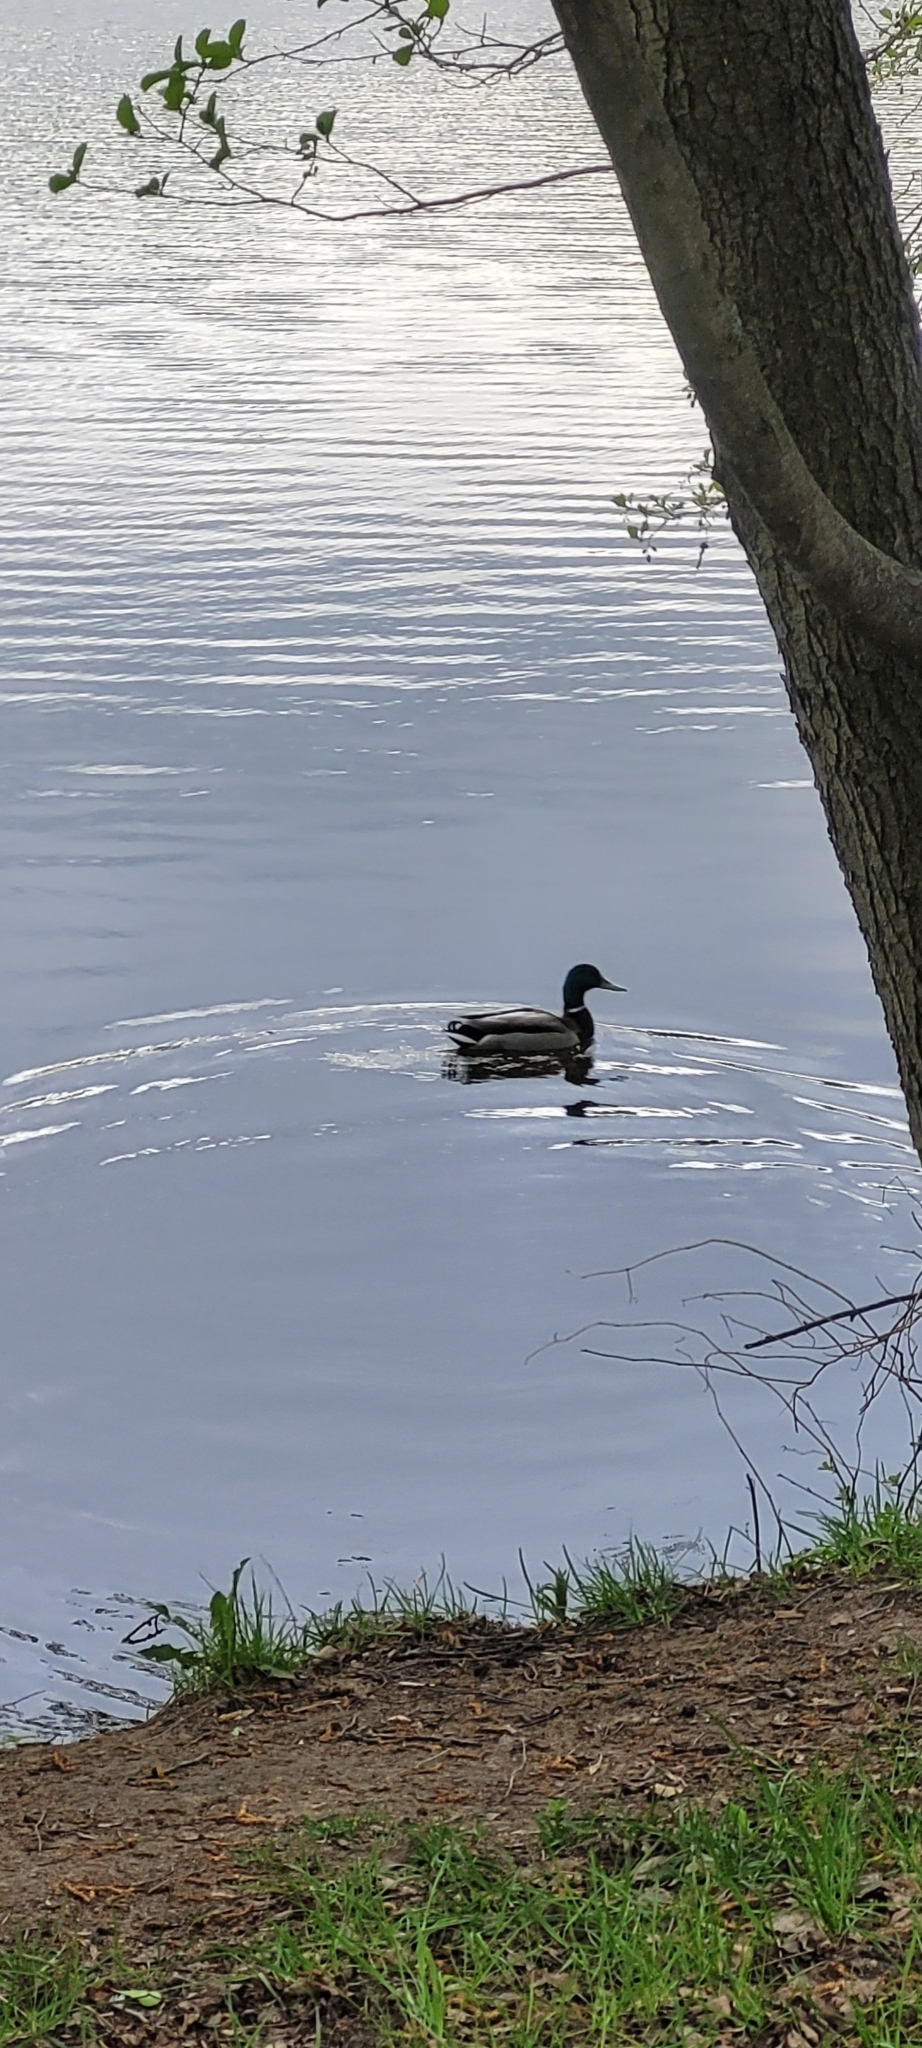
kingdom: Animalia
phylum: Chordata
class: Aves
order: Anseriformes
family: Anatidae
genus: Anas
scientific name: Anas platyrhynchos
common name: Mallard
